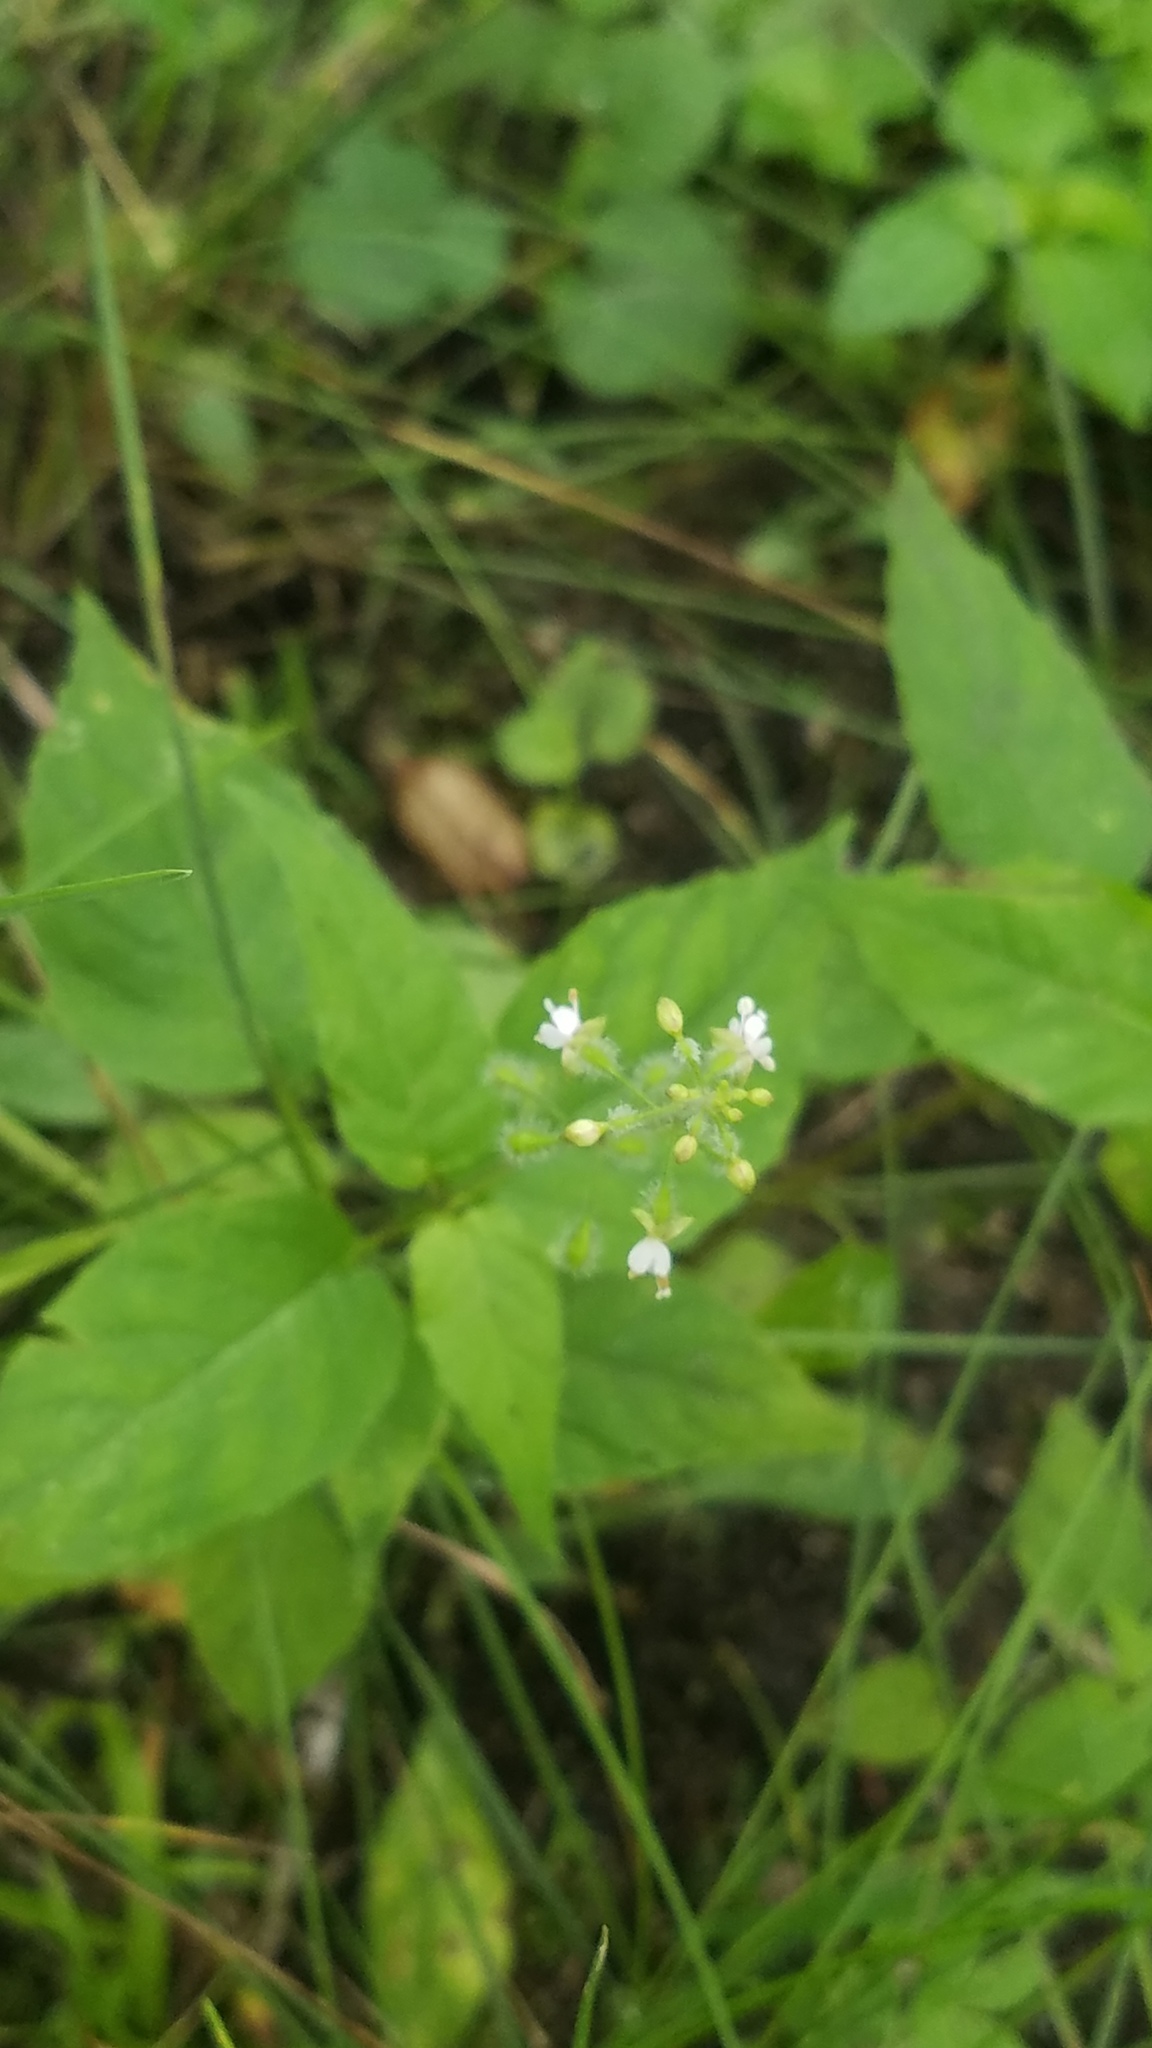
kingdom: Plantae
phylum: Tracheophyta
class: Magnoliopsida
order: Myrtales
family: Onagraceae
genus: Circaea
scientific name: Circaea canadensis
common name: Broad-leaved enchanter's nightshade
